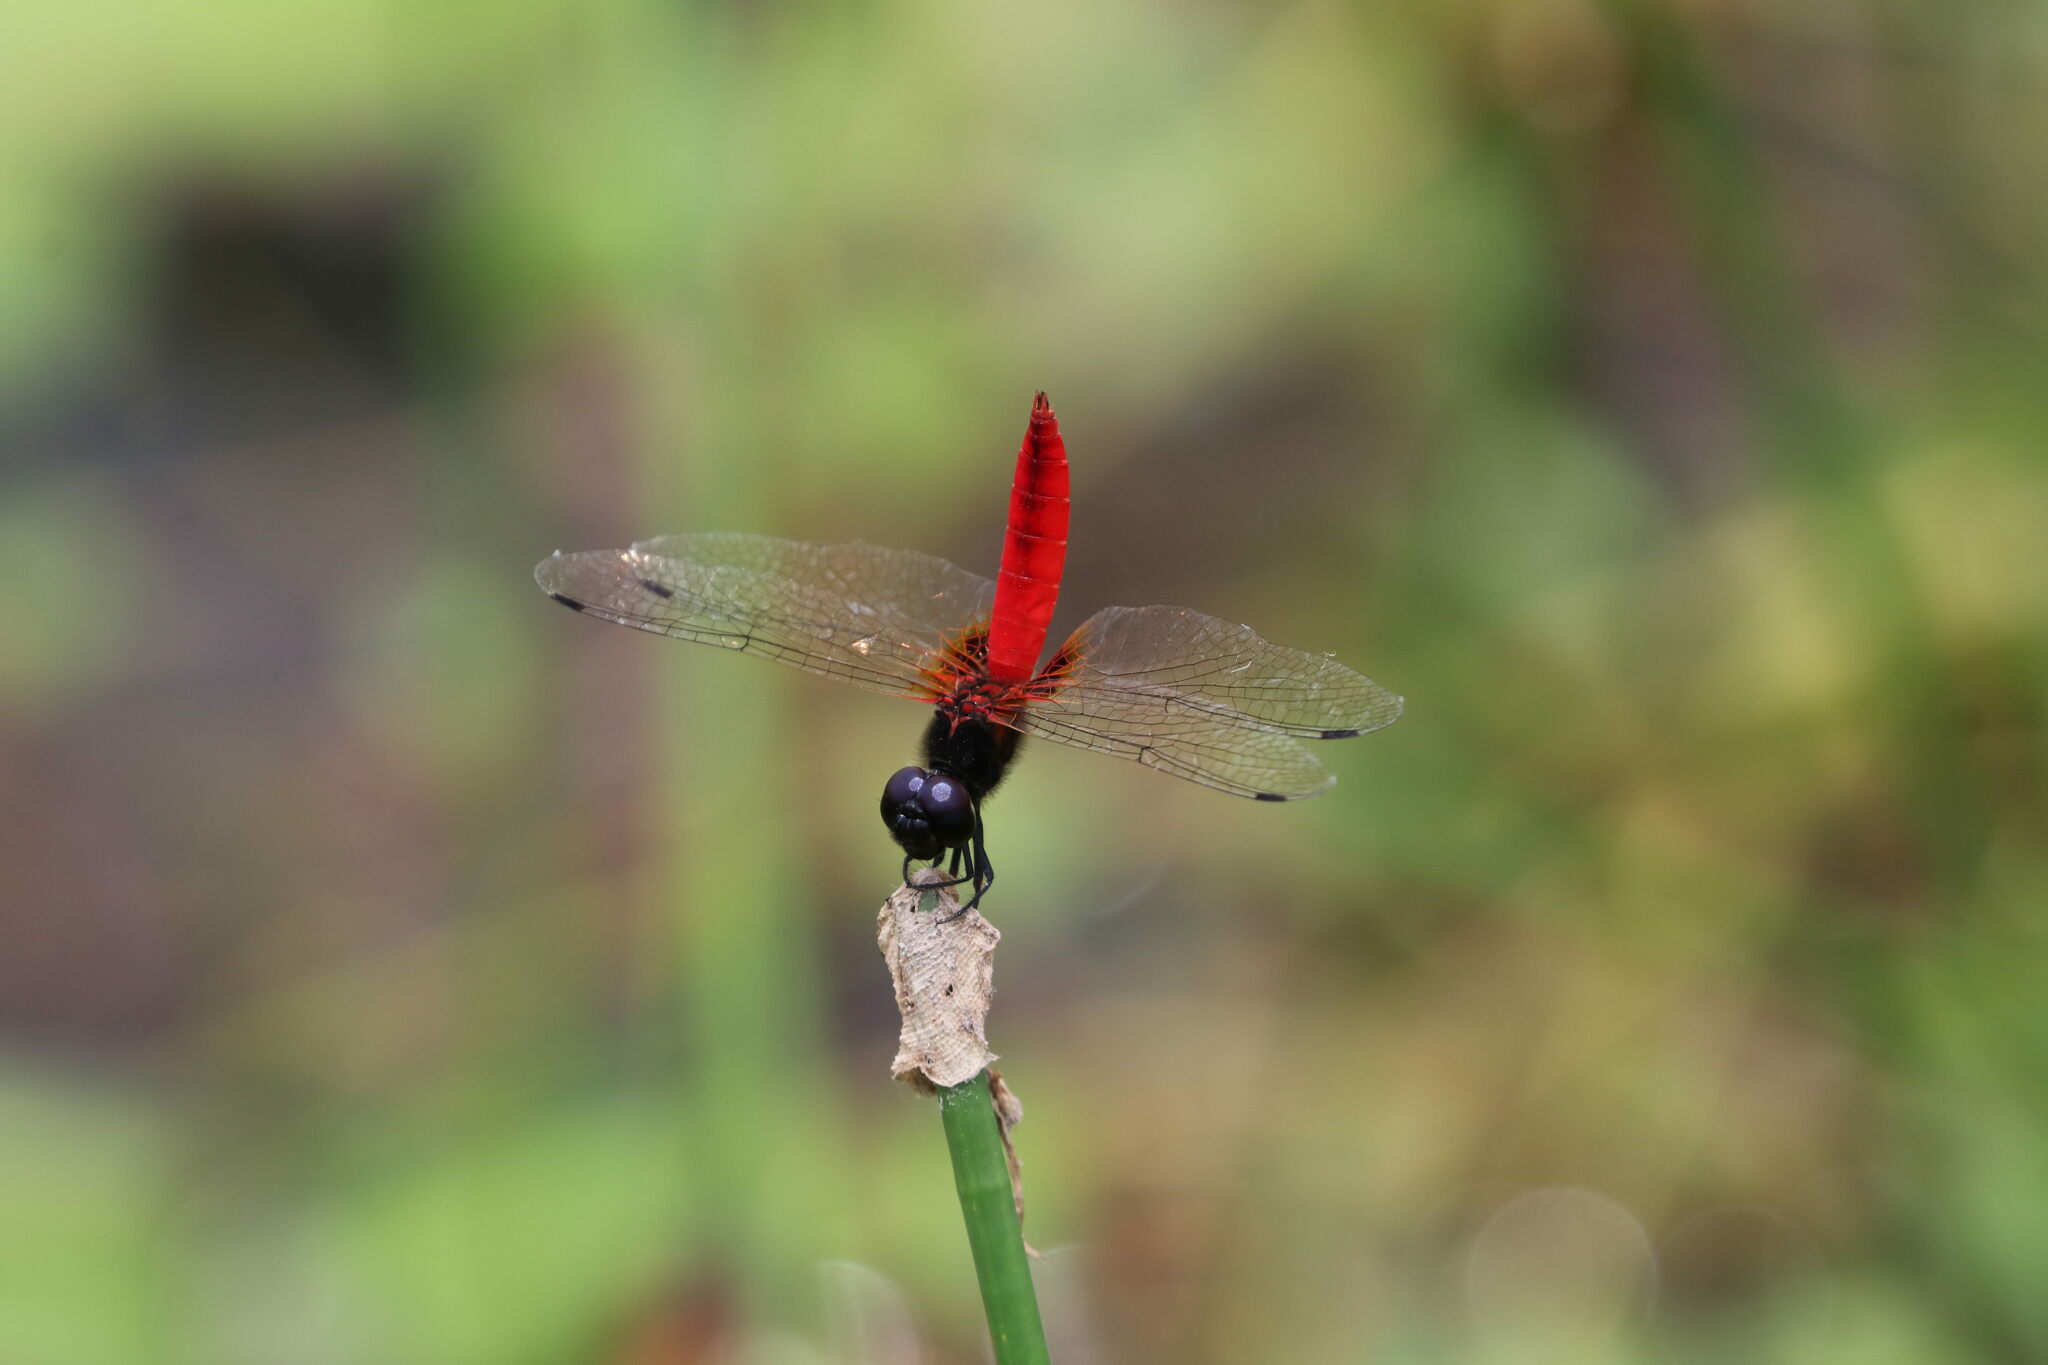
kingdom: Animalia
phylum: Arthropoda
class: Insecta
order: Odonata
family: Libellulidae
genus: Aethriamanta
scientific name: Aethriamanta brevipennis
